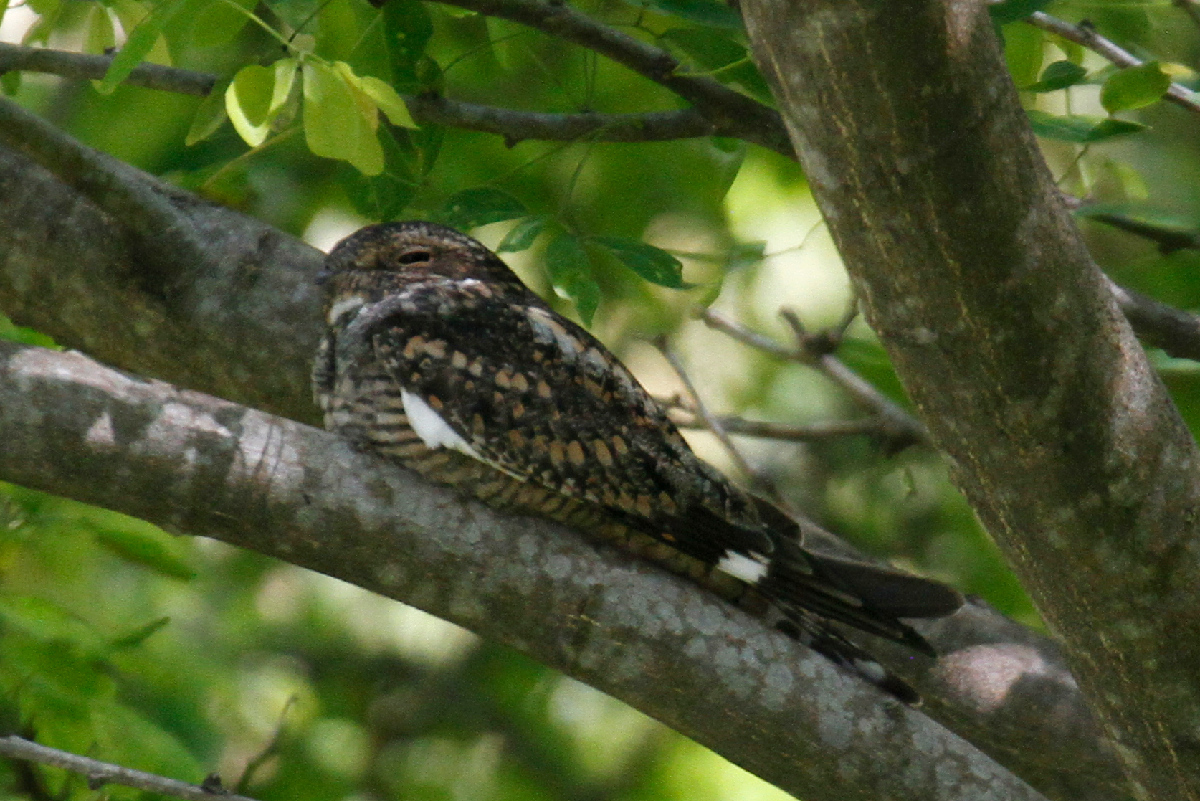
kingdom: Animalia
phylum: Chordata
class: Aves
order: Caprimulgiformes
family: Caprimulgidae
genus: Chordeiles
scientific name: Chordeiles acutipennis
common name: Lesser nighthawk
